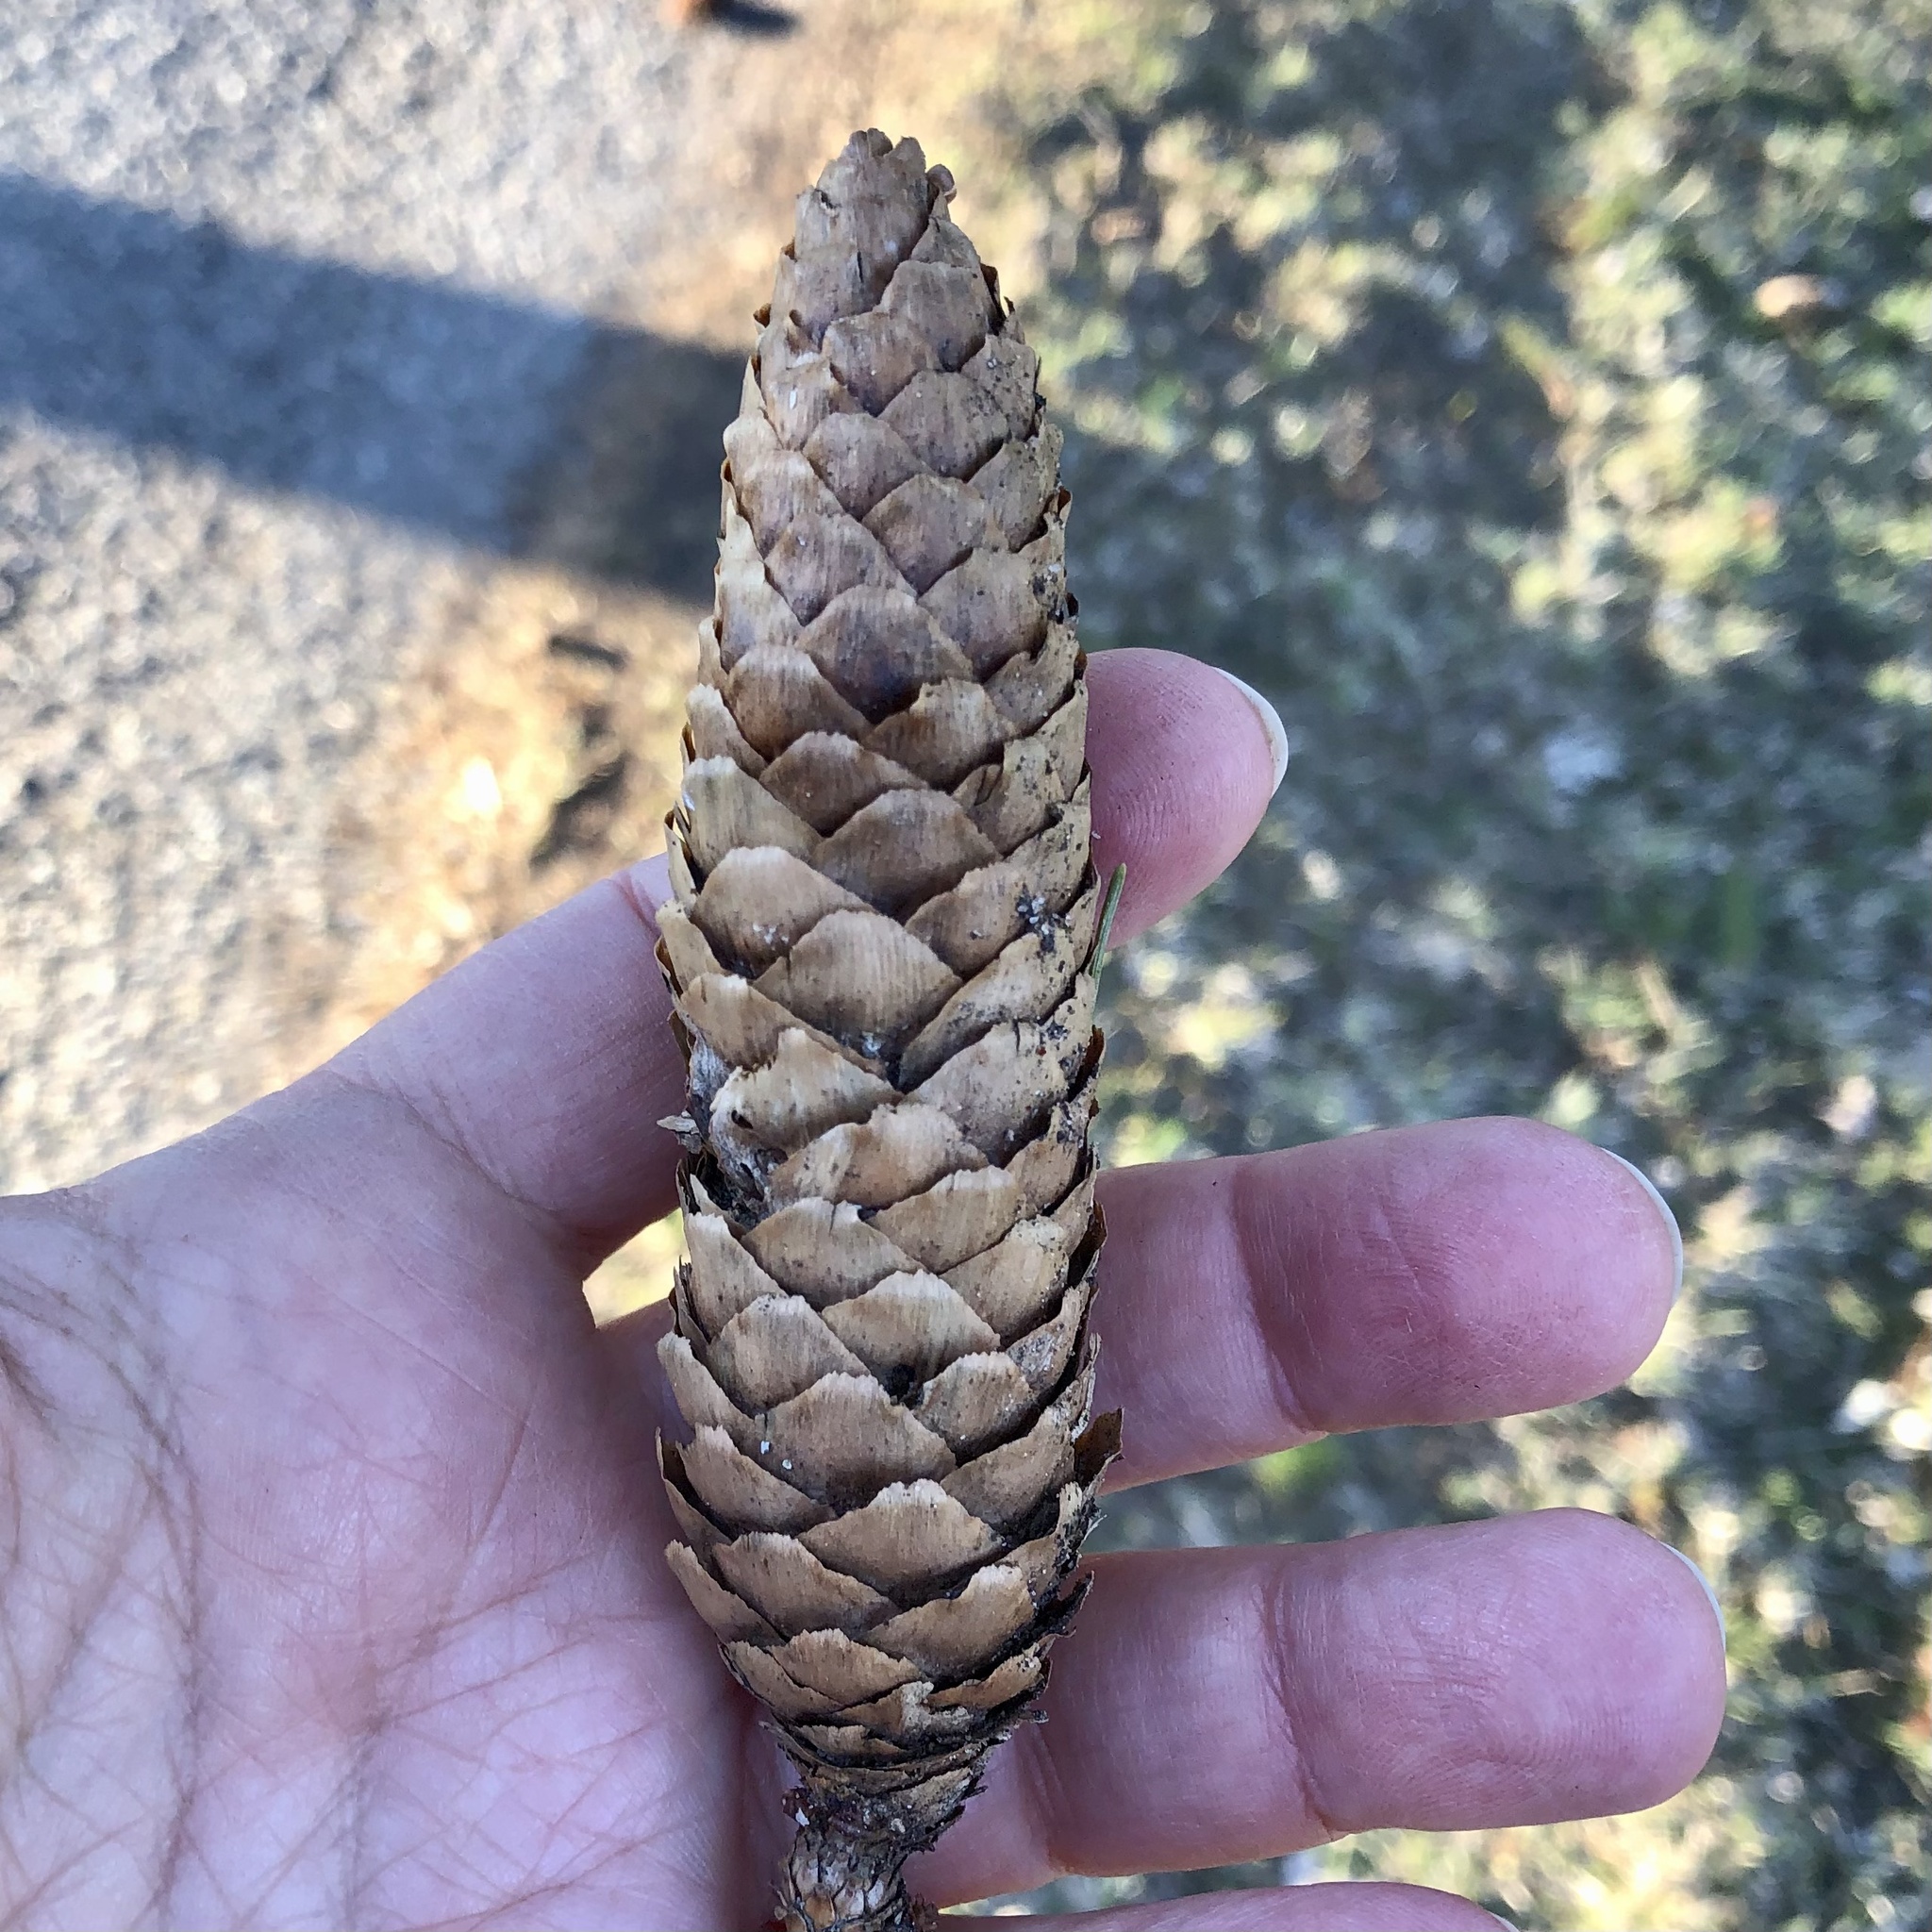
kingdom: Plantae
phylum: Tracheophyta
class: Pinopsida
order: Pinales
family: Pinaceae
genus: Picea
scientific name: Picea abies
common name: Norway spruce
